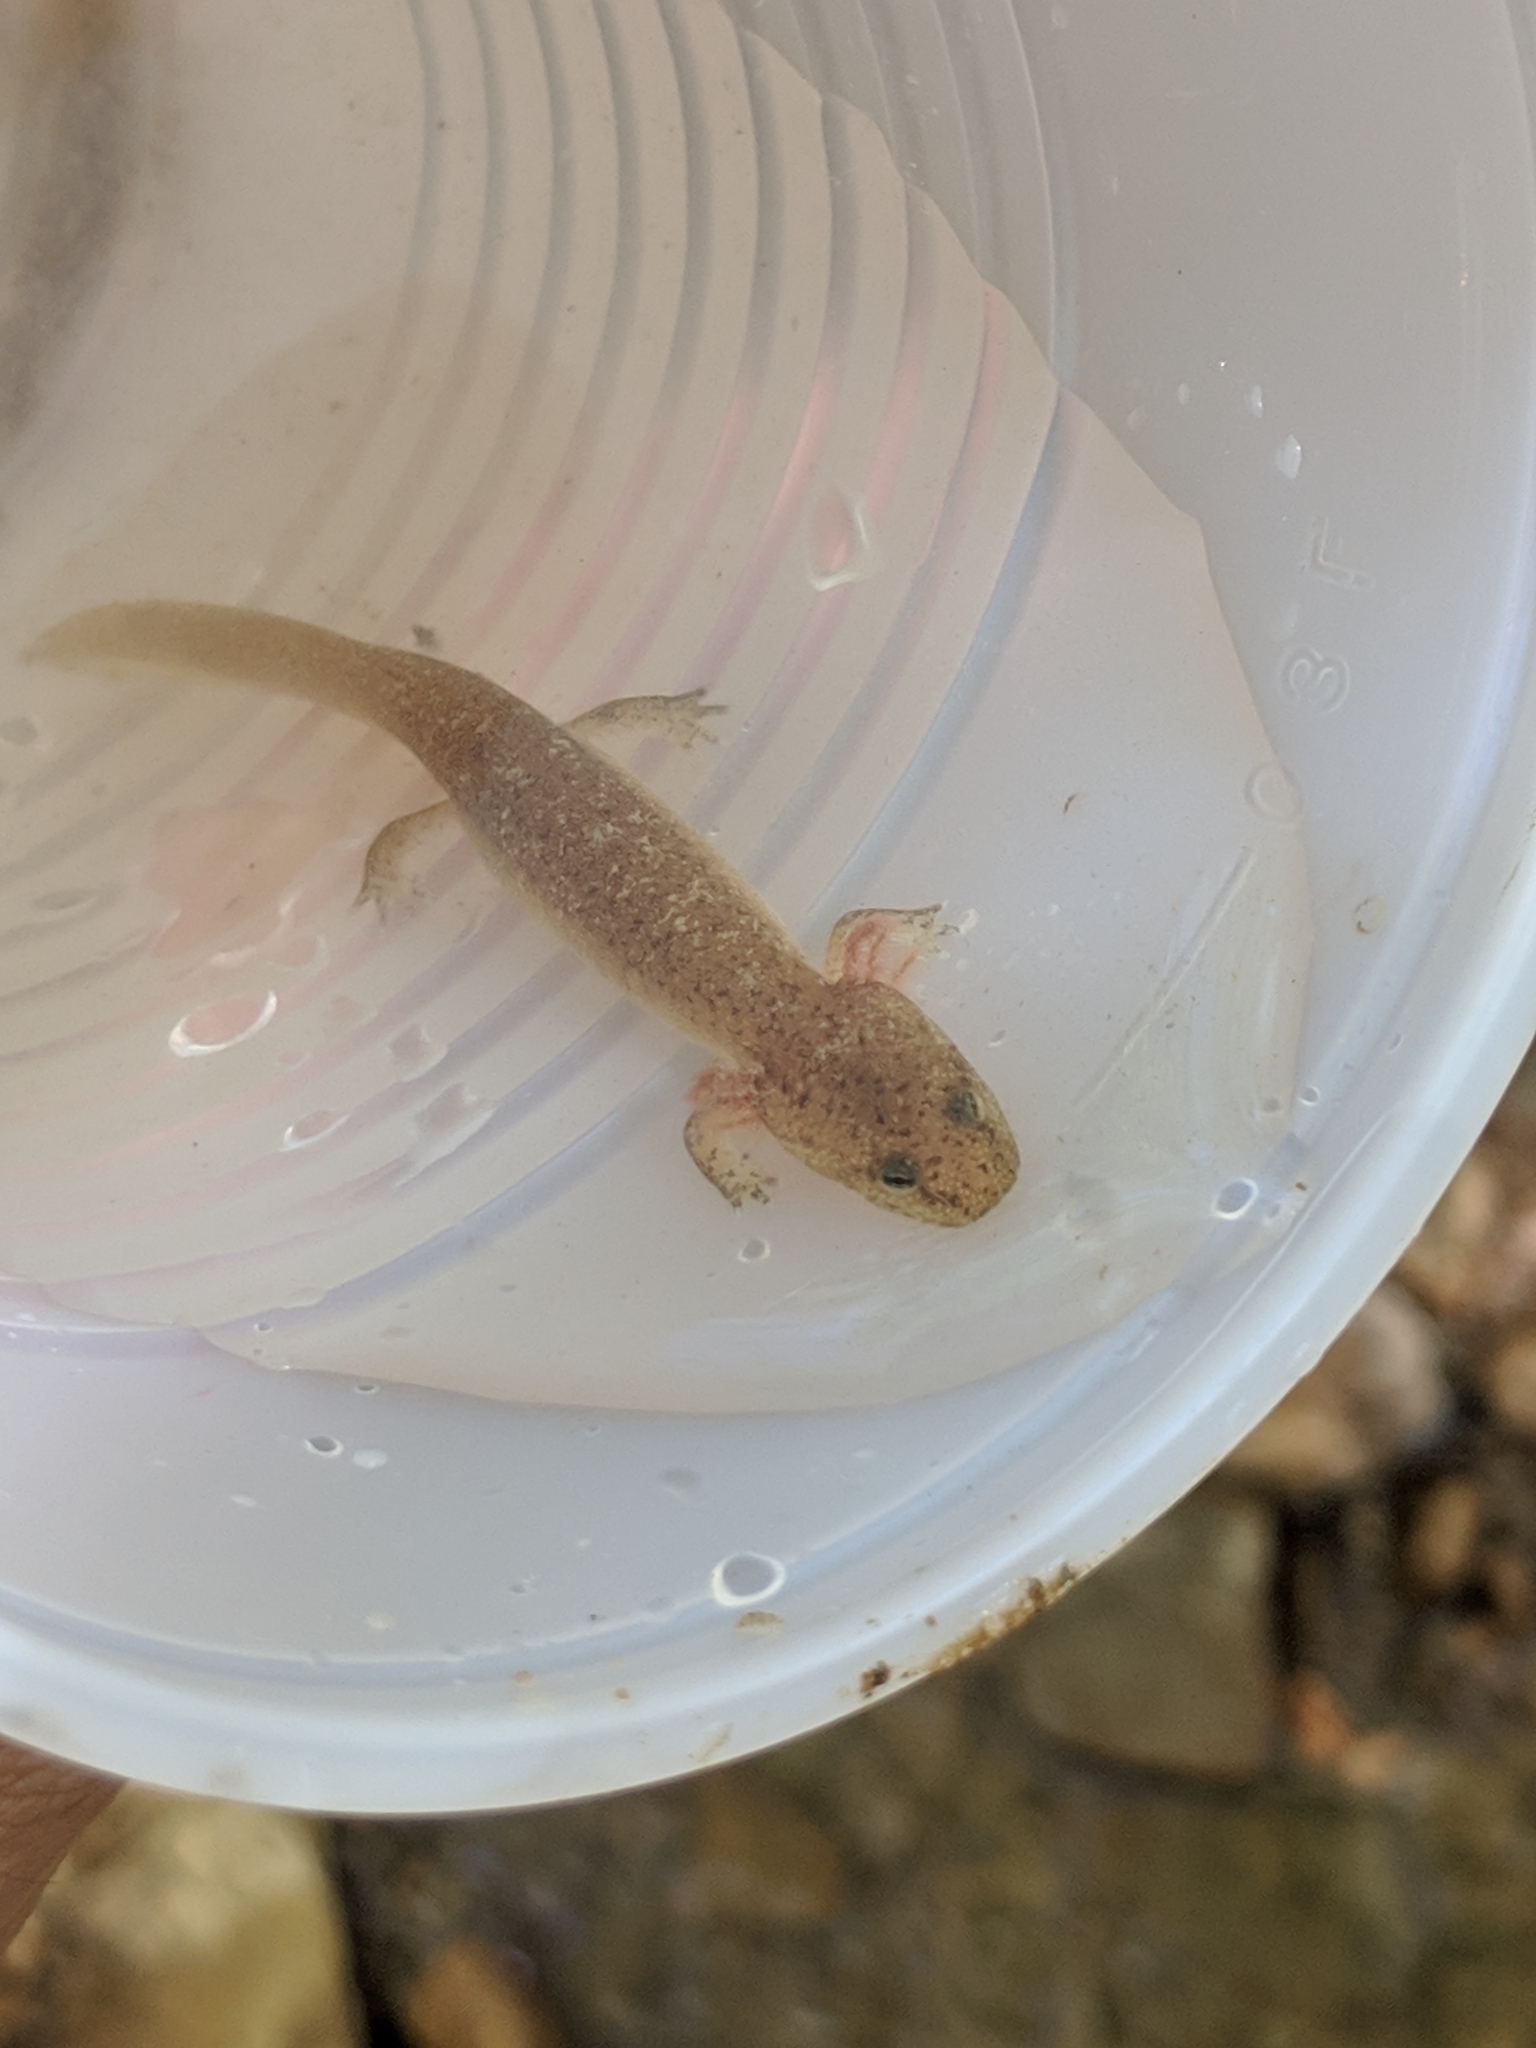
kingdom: Animalia
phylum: Chordata
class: Amphibia
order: Caudata
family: Plethodontidae
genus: Pseudotriton
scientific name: Pseudotriton ruber
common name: Red salamander
